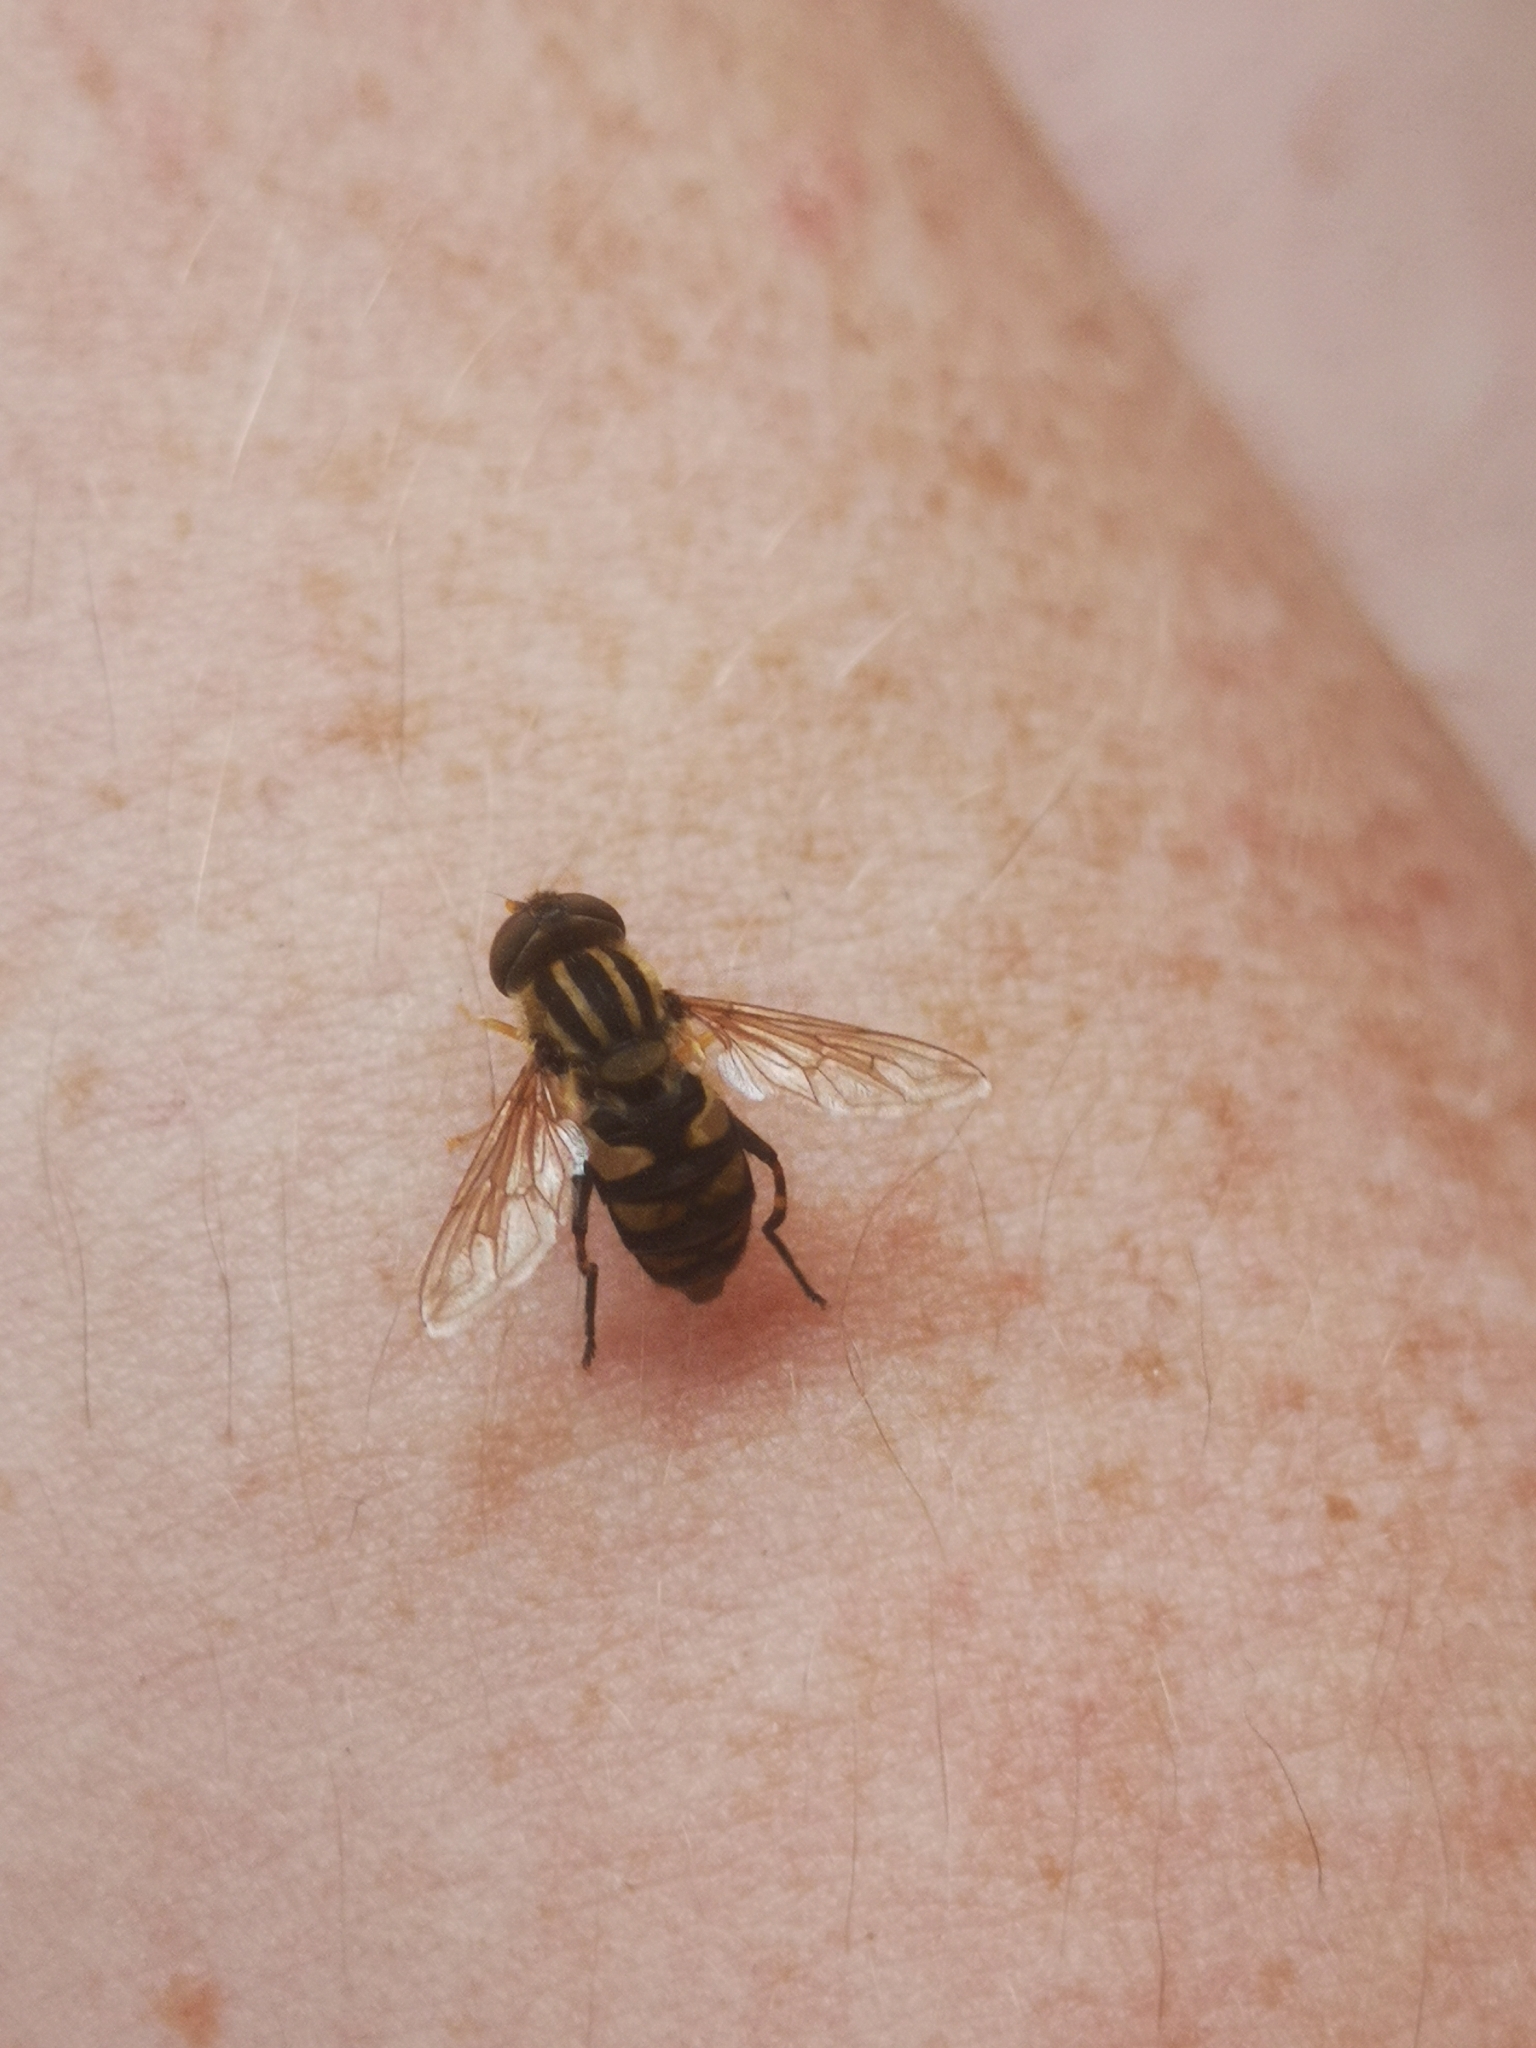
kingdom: Animalia
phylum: Arthropoda
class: Insecta
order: Diptera
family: Syrphidae
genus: Parhelophilus
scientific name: Parhelophilus integer
